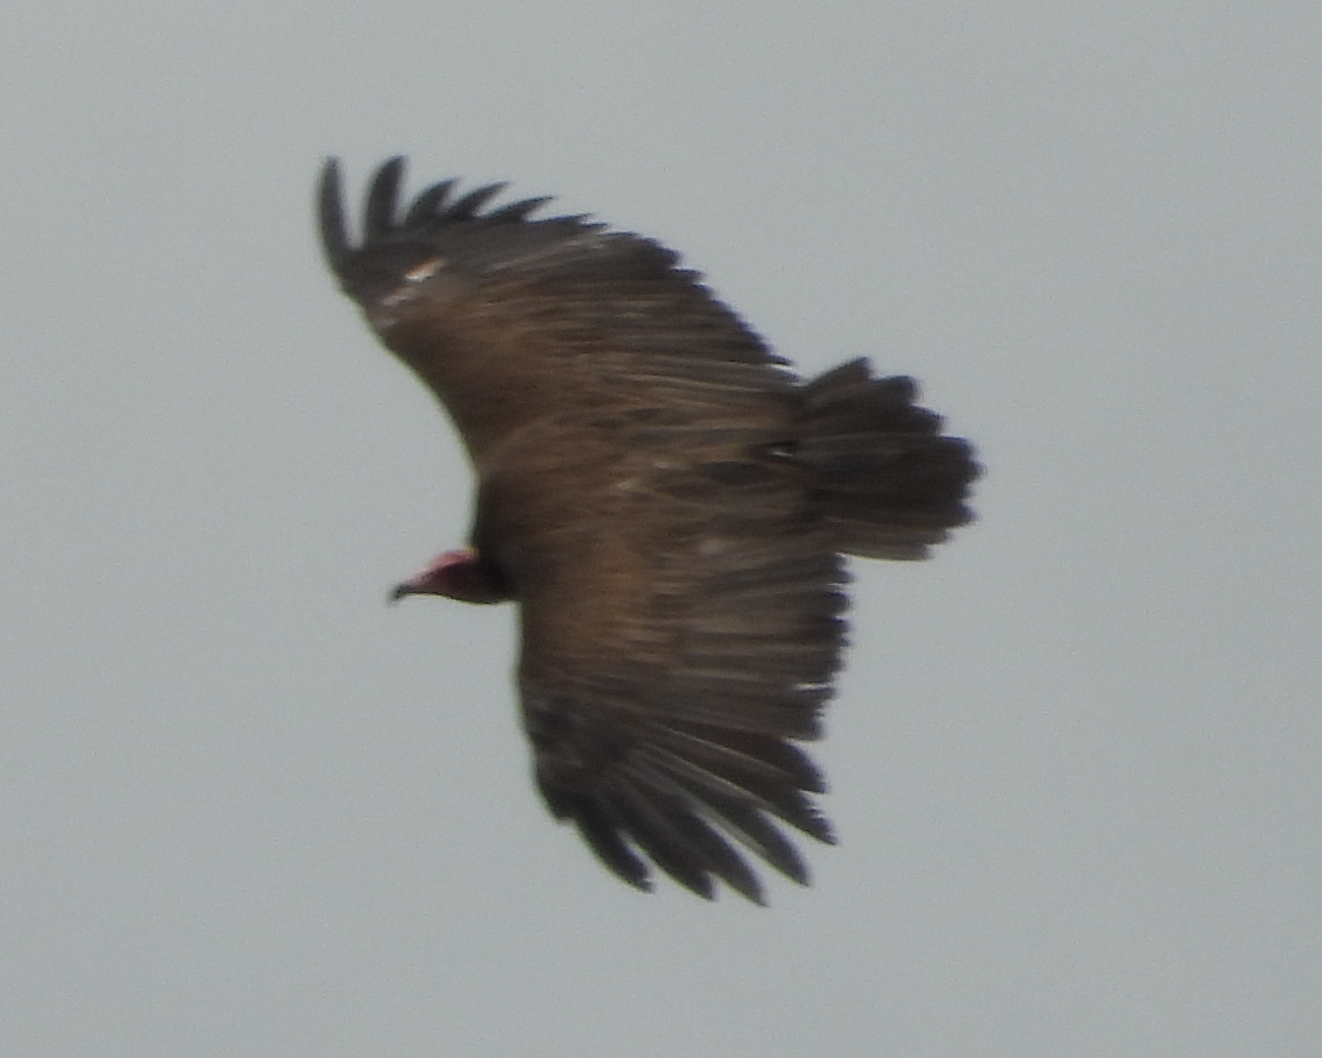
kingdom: Animalia
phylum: Chordata
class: Aves
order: Accipitriformes
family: Accipitridae
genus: Necrosyrtes
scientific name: Necrosyrtes monachus
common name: Hooded vulture
